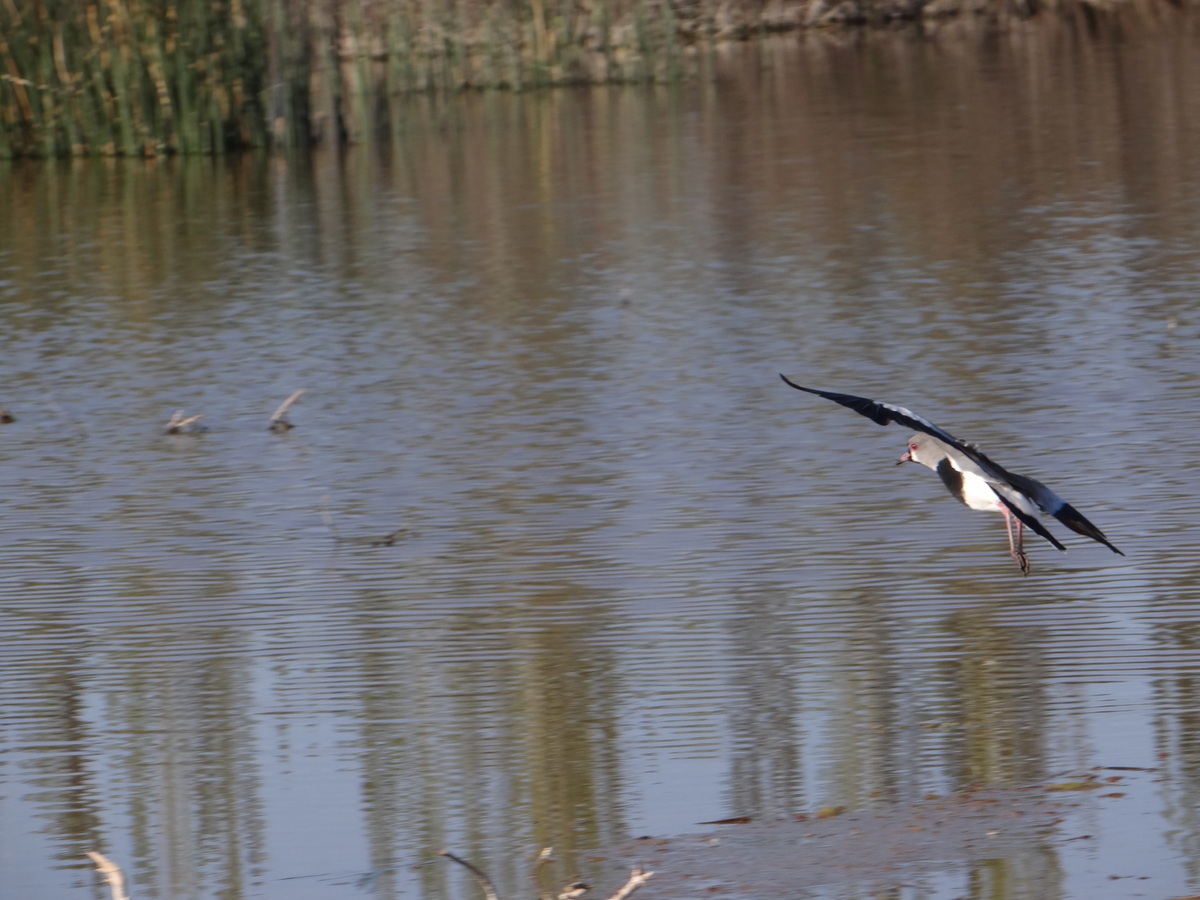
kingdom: Animalia
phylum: Chordata
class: Aves
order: Charadriiformes
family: Charadriidae
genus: Vanellus
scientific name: Vanellus chilensis
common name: Southern lapwing
